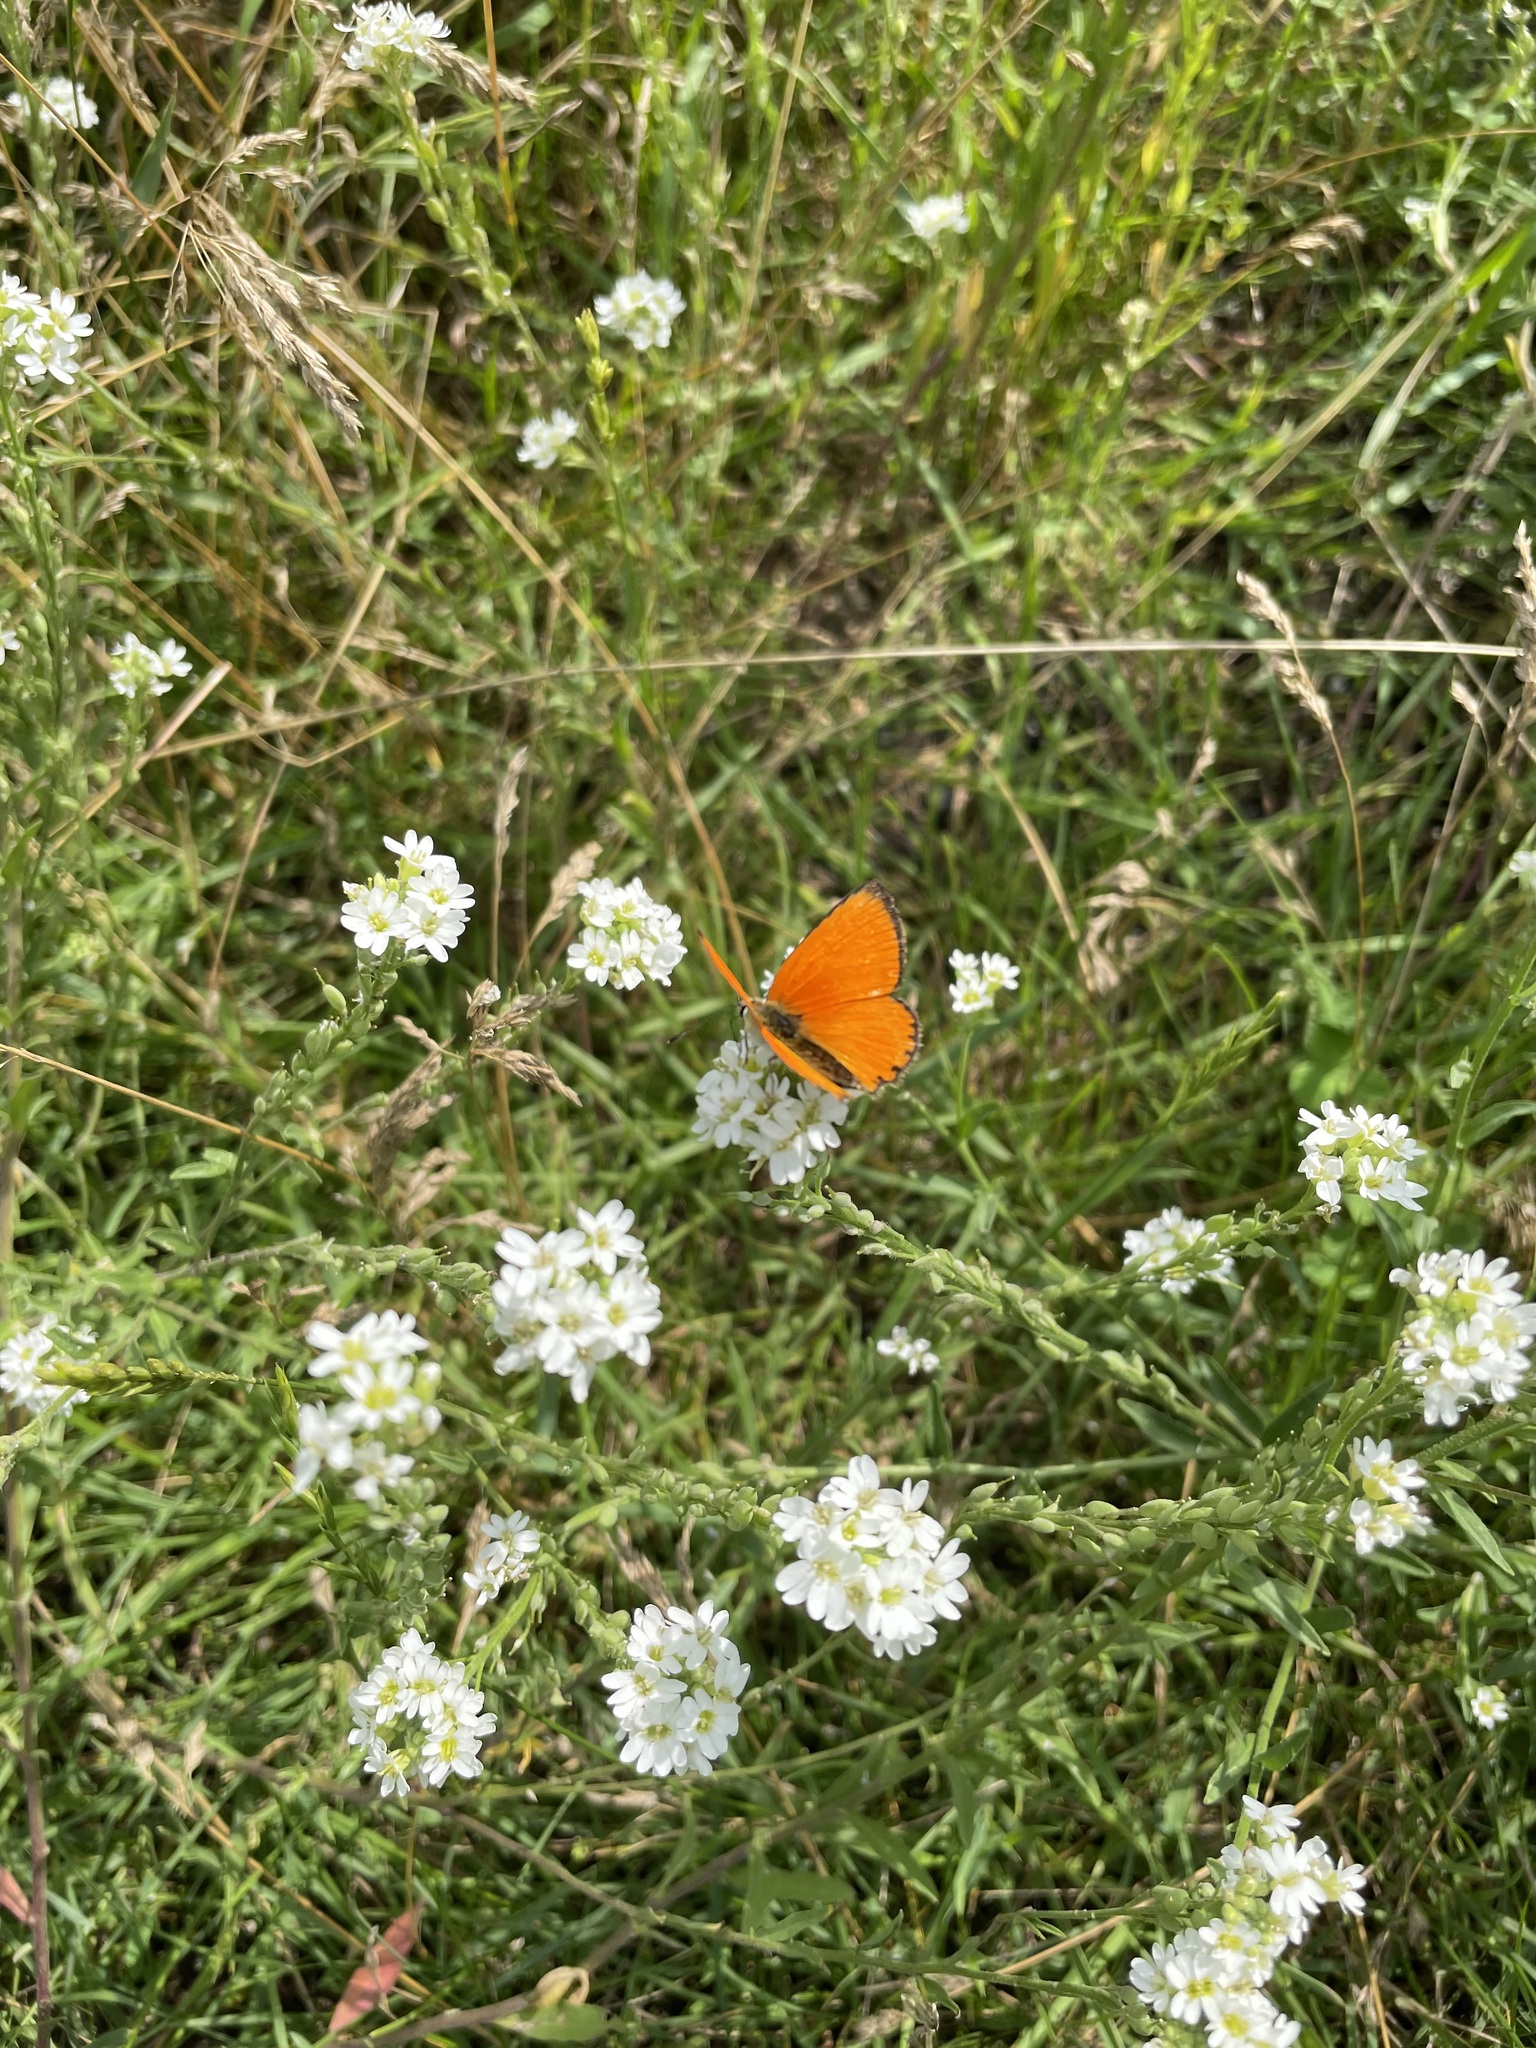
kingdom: Animalia
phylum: Arthropoda
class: Insecta
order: Lepidoptera
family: Lycaenidae
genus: Lycaena
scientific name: Lycaena virgaureae
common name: Scarce copper
